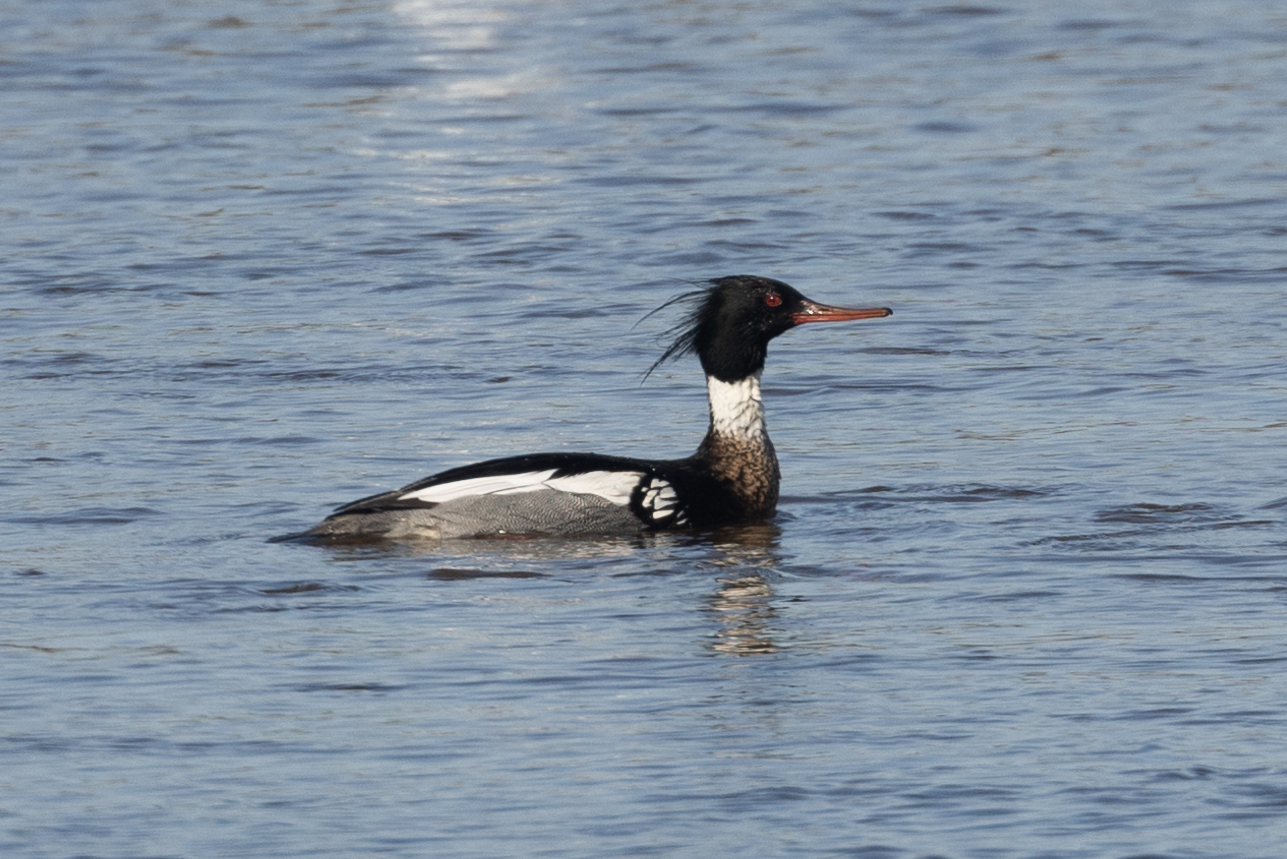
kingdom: Animalia
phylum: Chordata
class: Aves
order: Anseriformes
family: Anatidae
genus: Mergus
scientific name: Mergus serrator
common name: Red-breasted merganser
